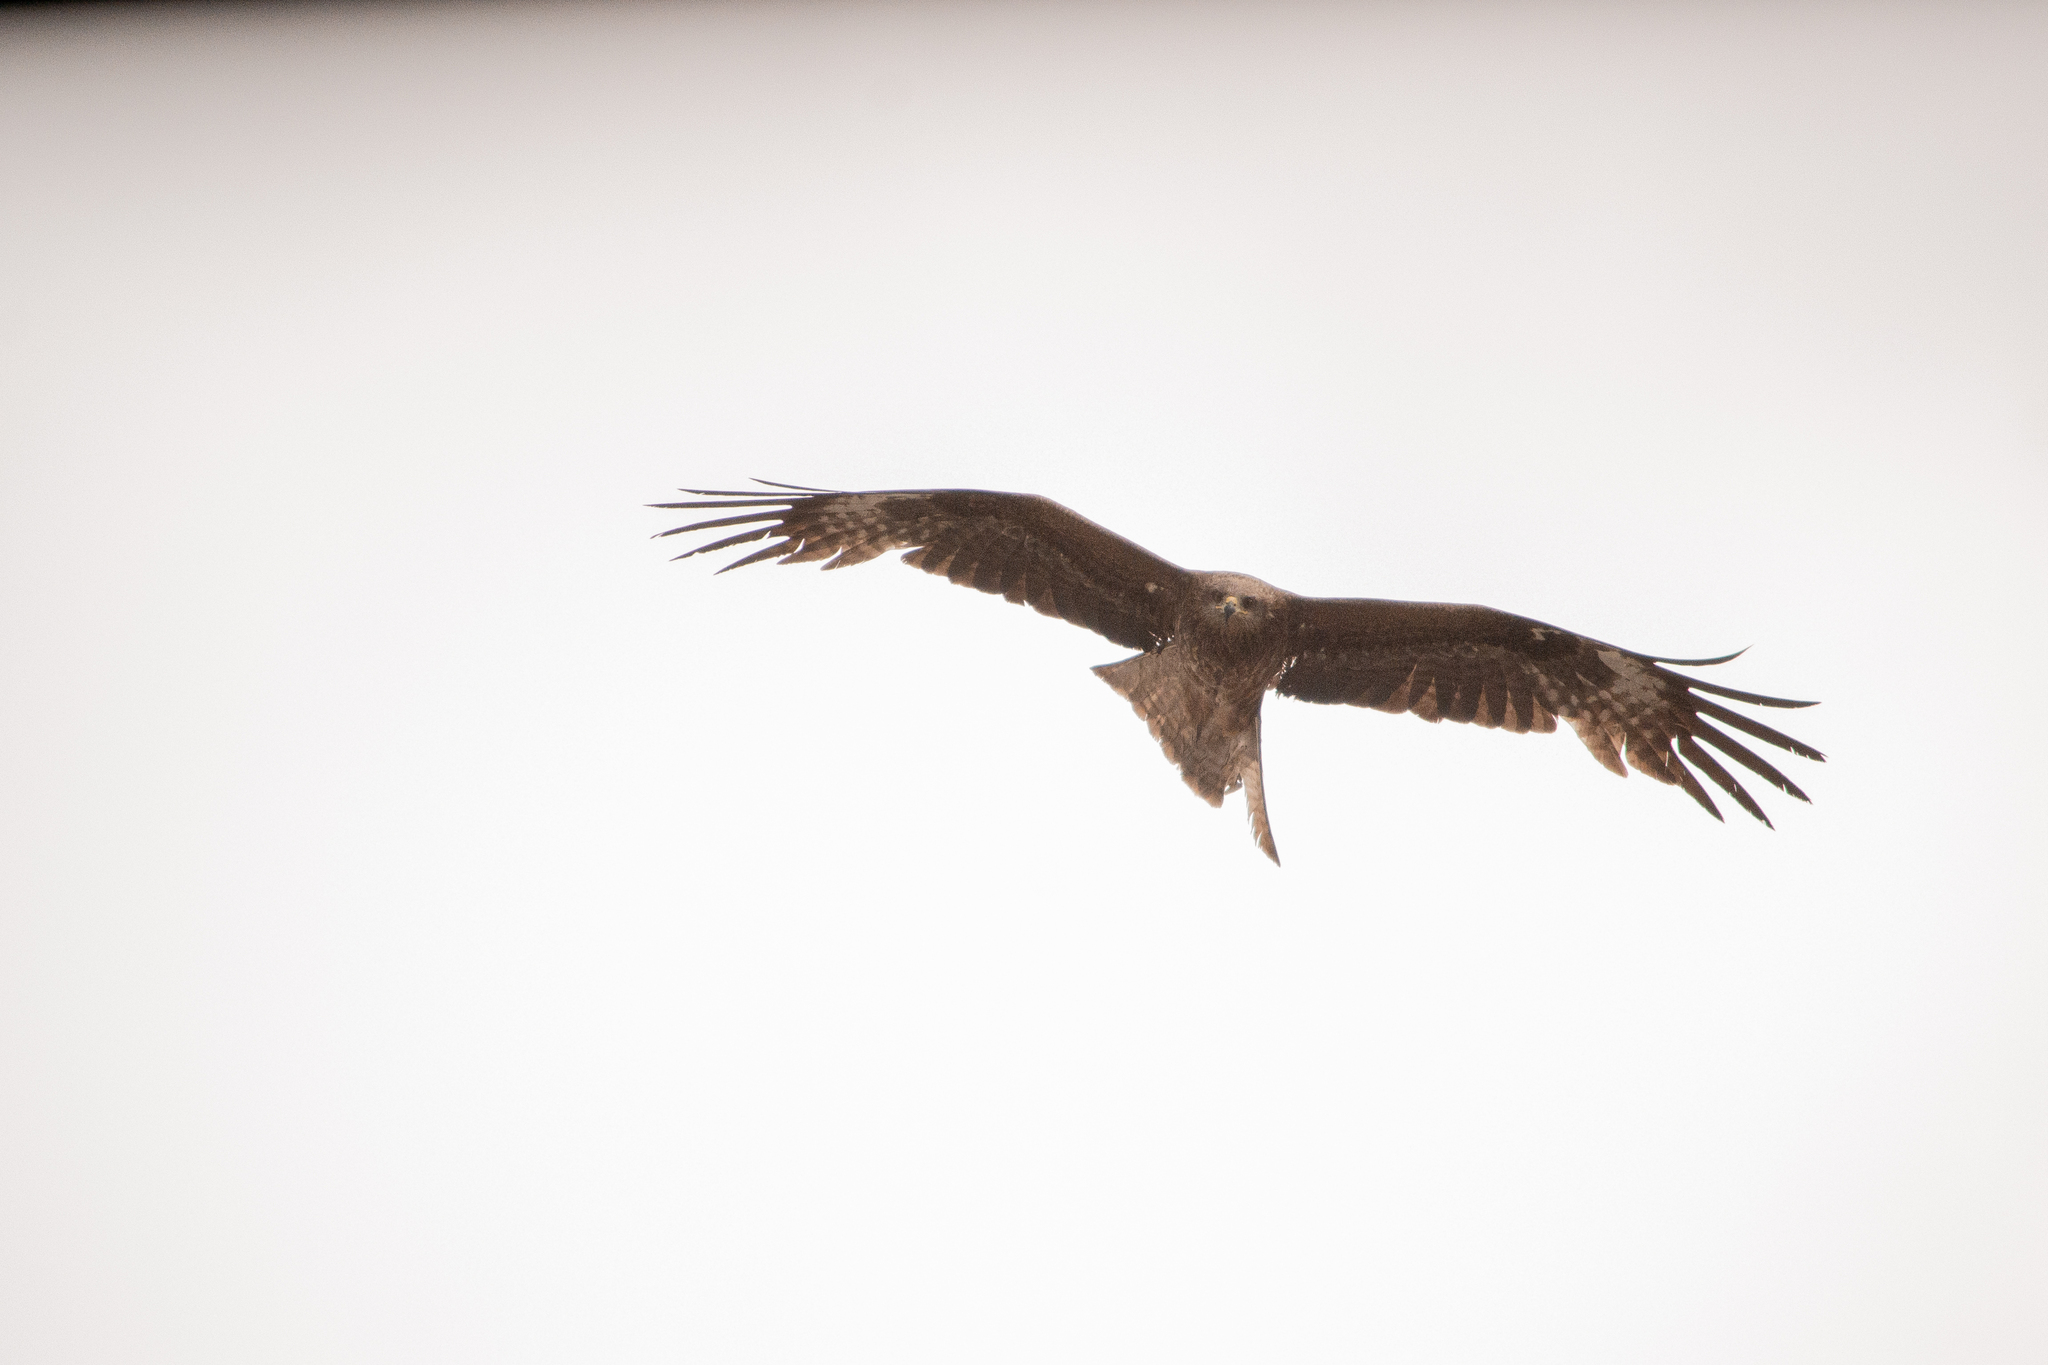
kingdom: Animalia
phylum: Chordata
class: Aves
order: Accipitriformes
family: Accipitridae
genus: Milvus
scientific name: Milvus migrans
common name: Black kite
